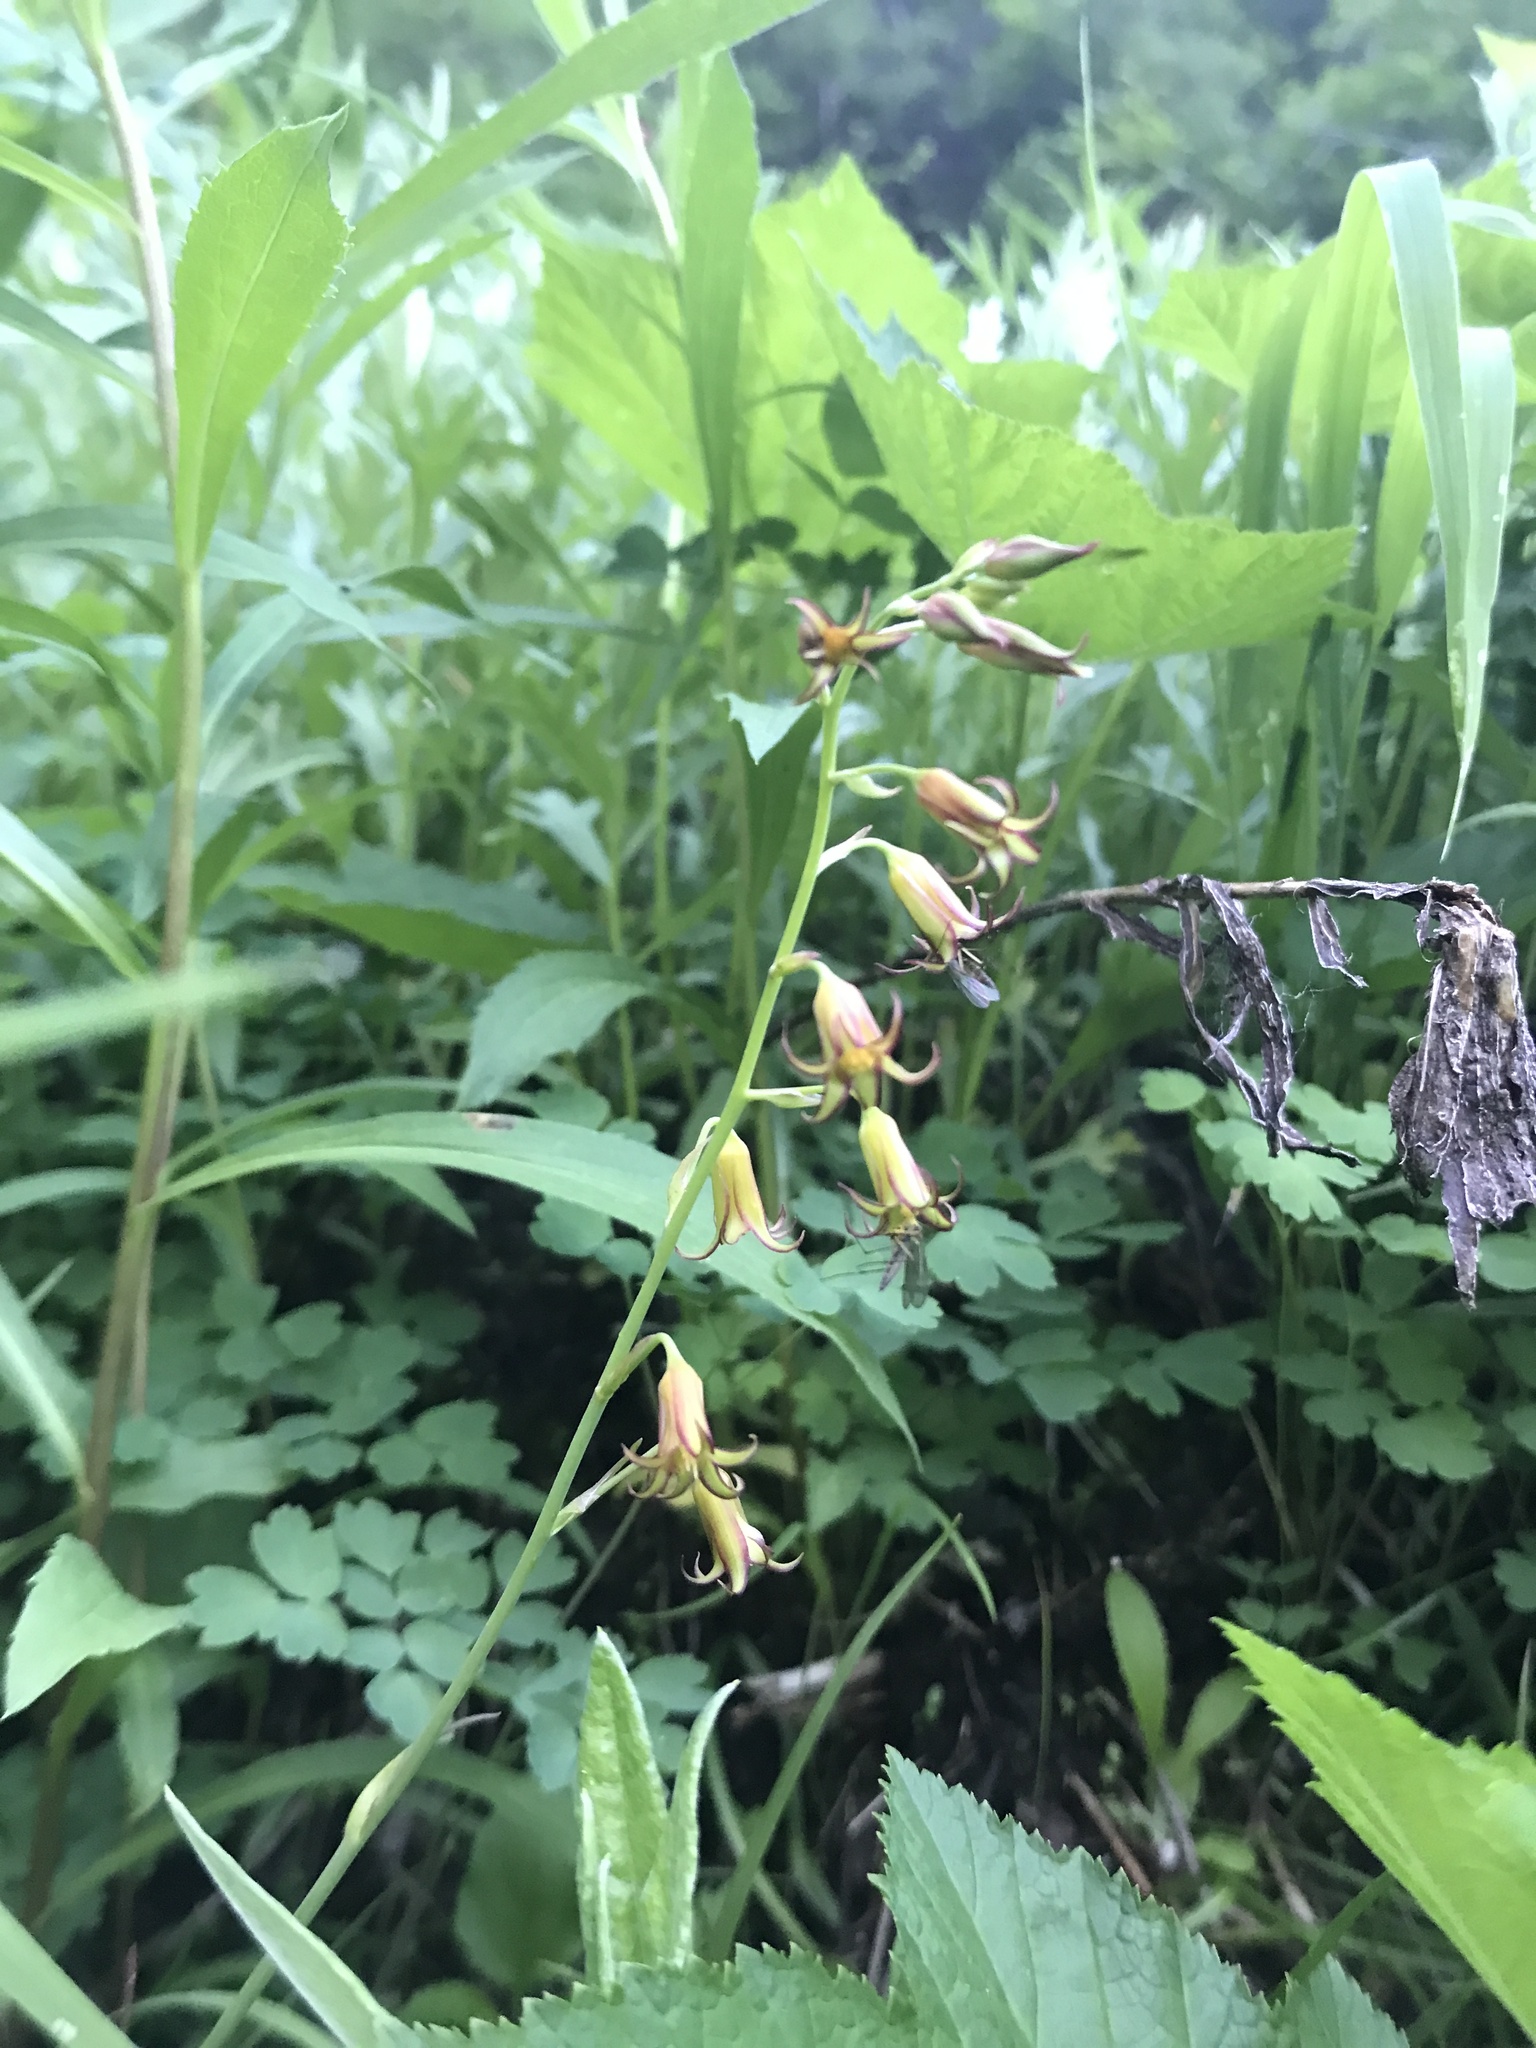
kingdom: Plantae
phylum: Tracheophyta
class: Liliopsida
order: Liliales
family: Melanthiaceae
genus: Anticlea
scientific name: Anticlea occidentalis
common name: Bronze-bells
